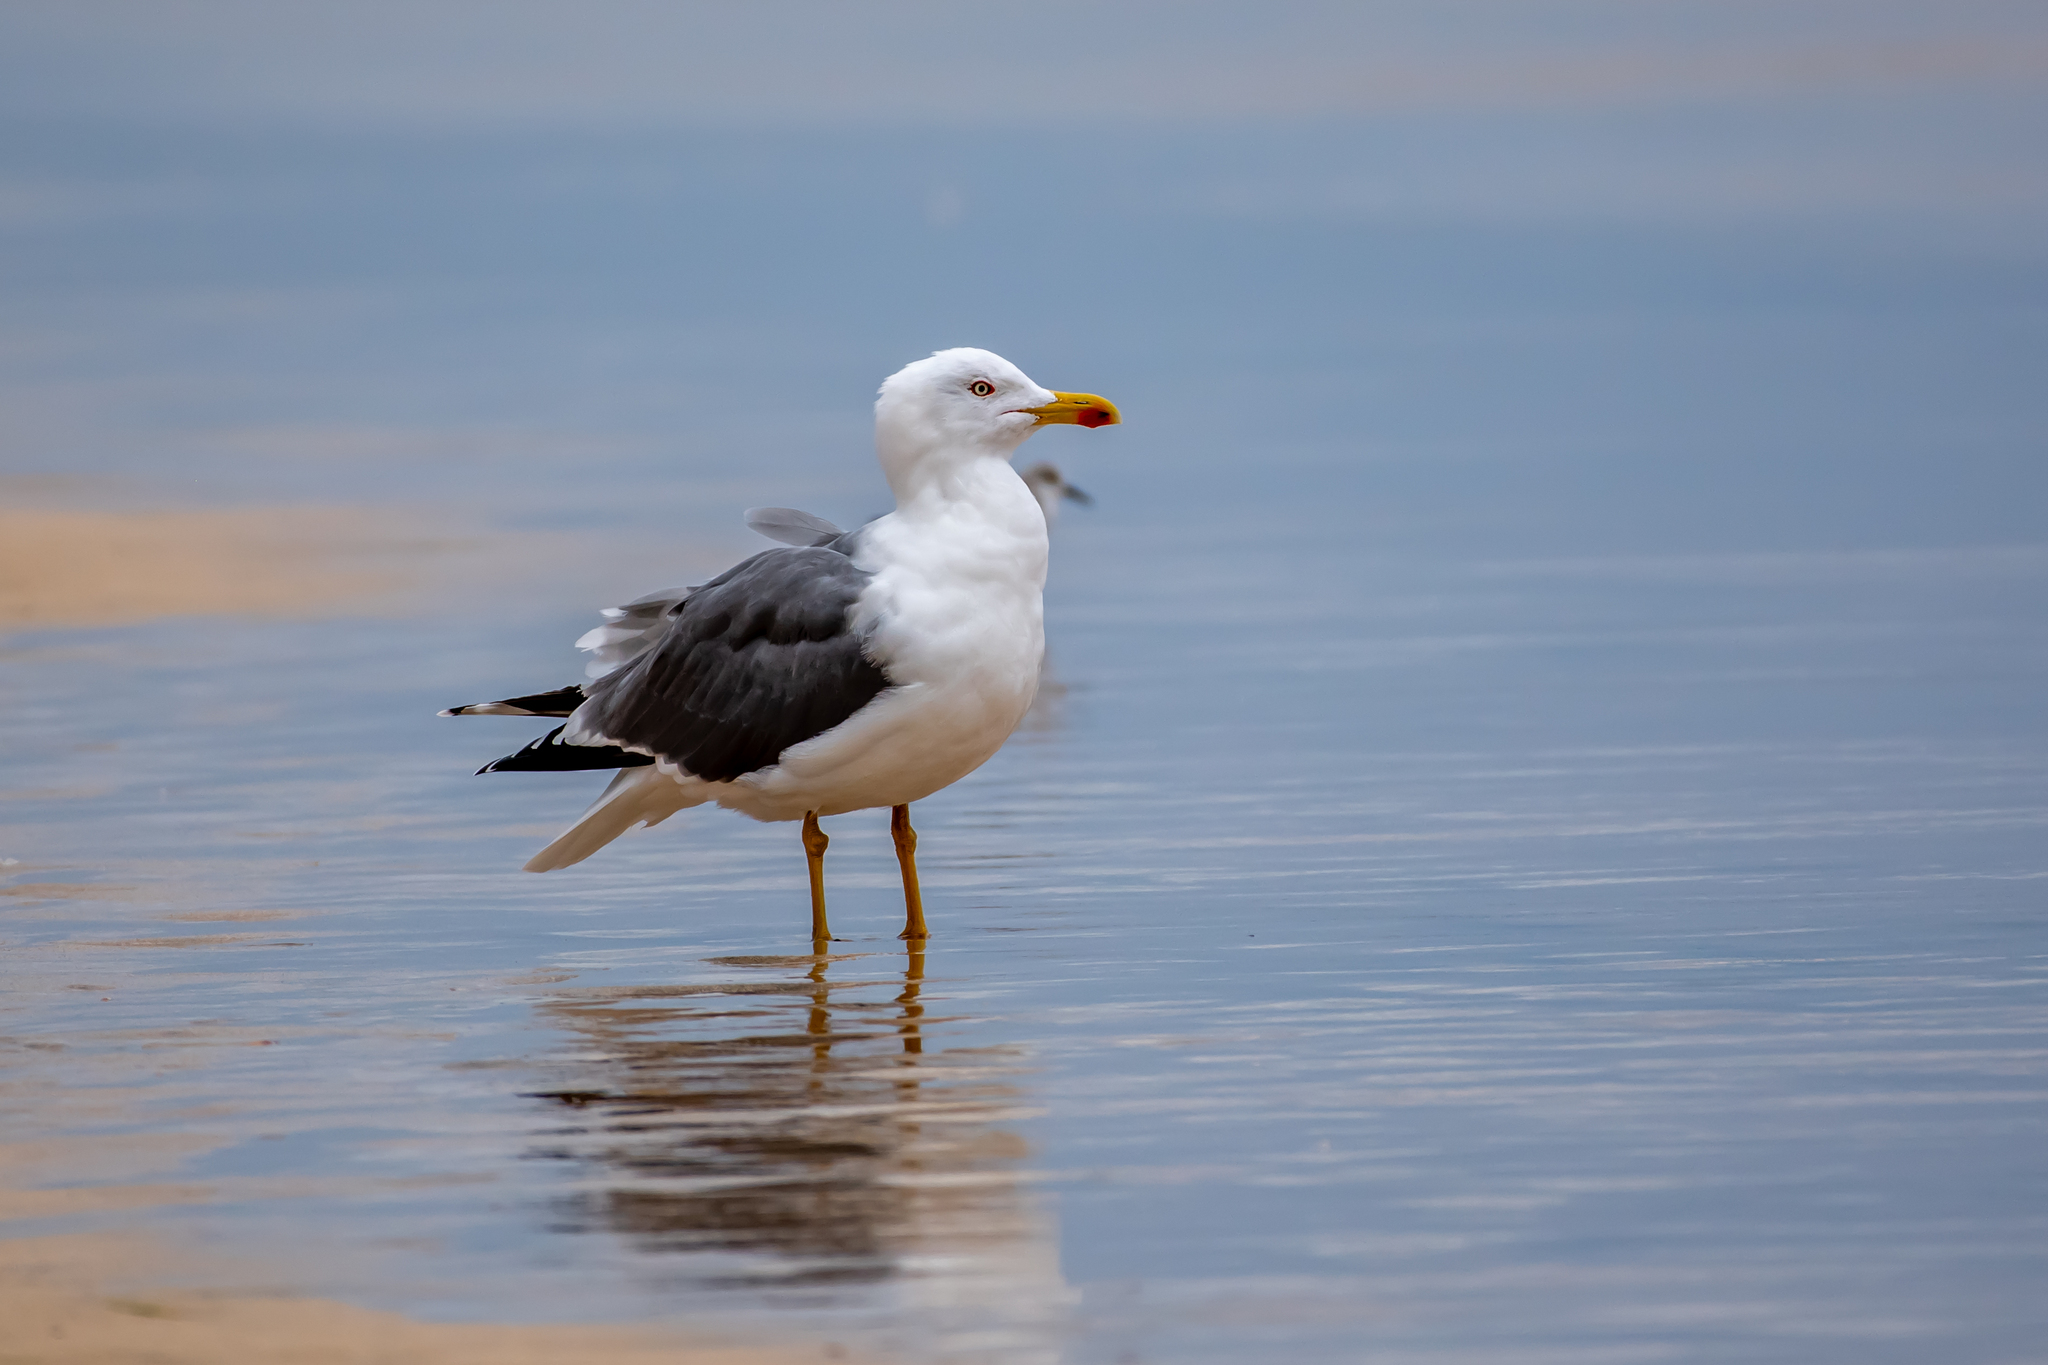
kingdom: Animalia
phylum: Chordata
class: Aves
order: Charadriiformes
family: Laridae
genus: Larus
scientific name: Larus fuscus
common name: Lesser black-backed gull
